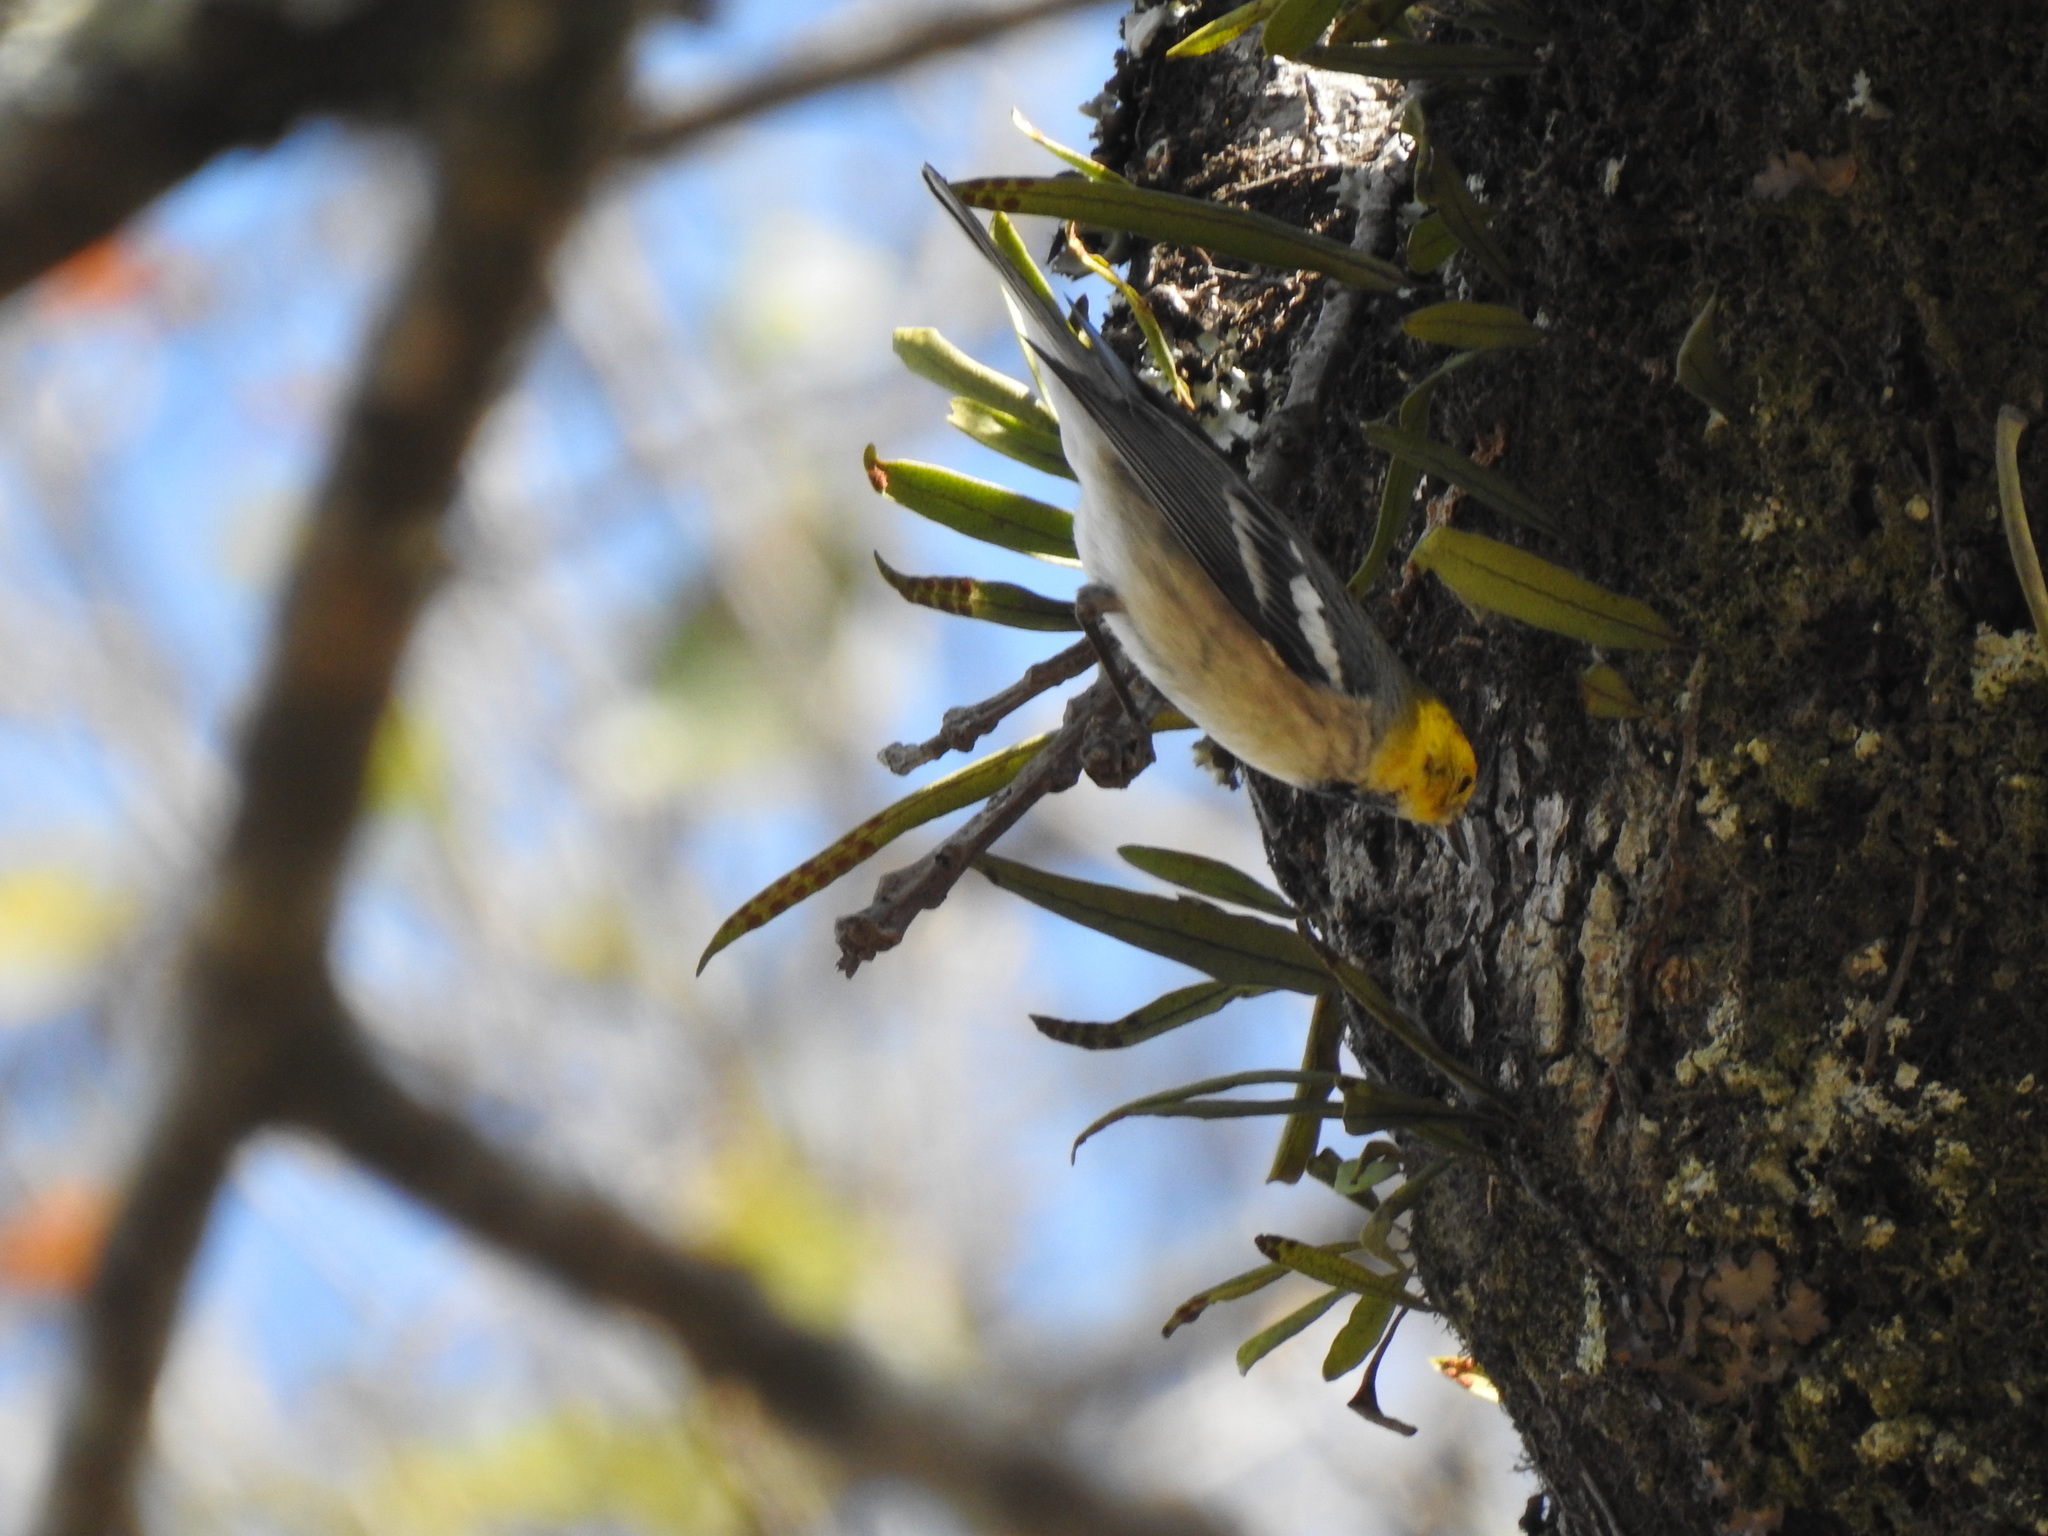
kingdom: Animalia
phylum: Chordata
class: Aves
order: Passeriformes
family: Parulidae
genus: Setophaga
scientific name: Setophaga occidentalis
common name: Hermit warbler
